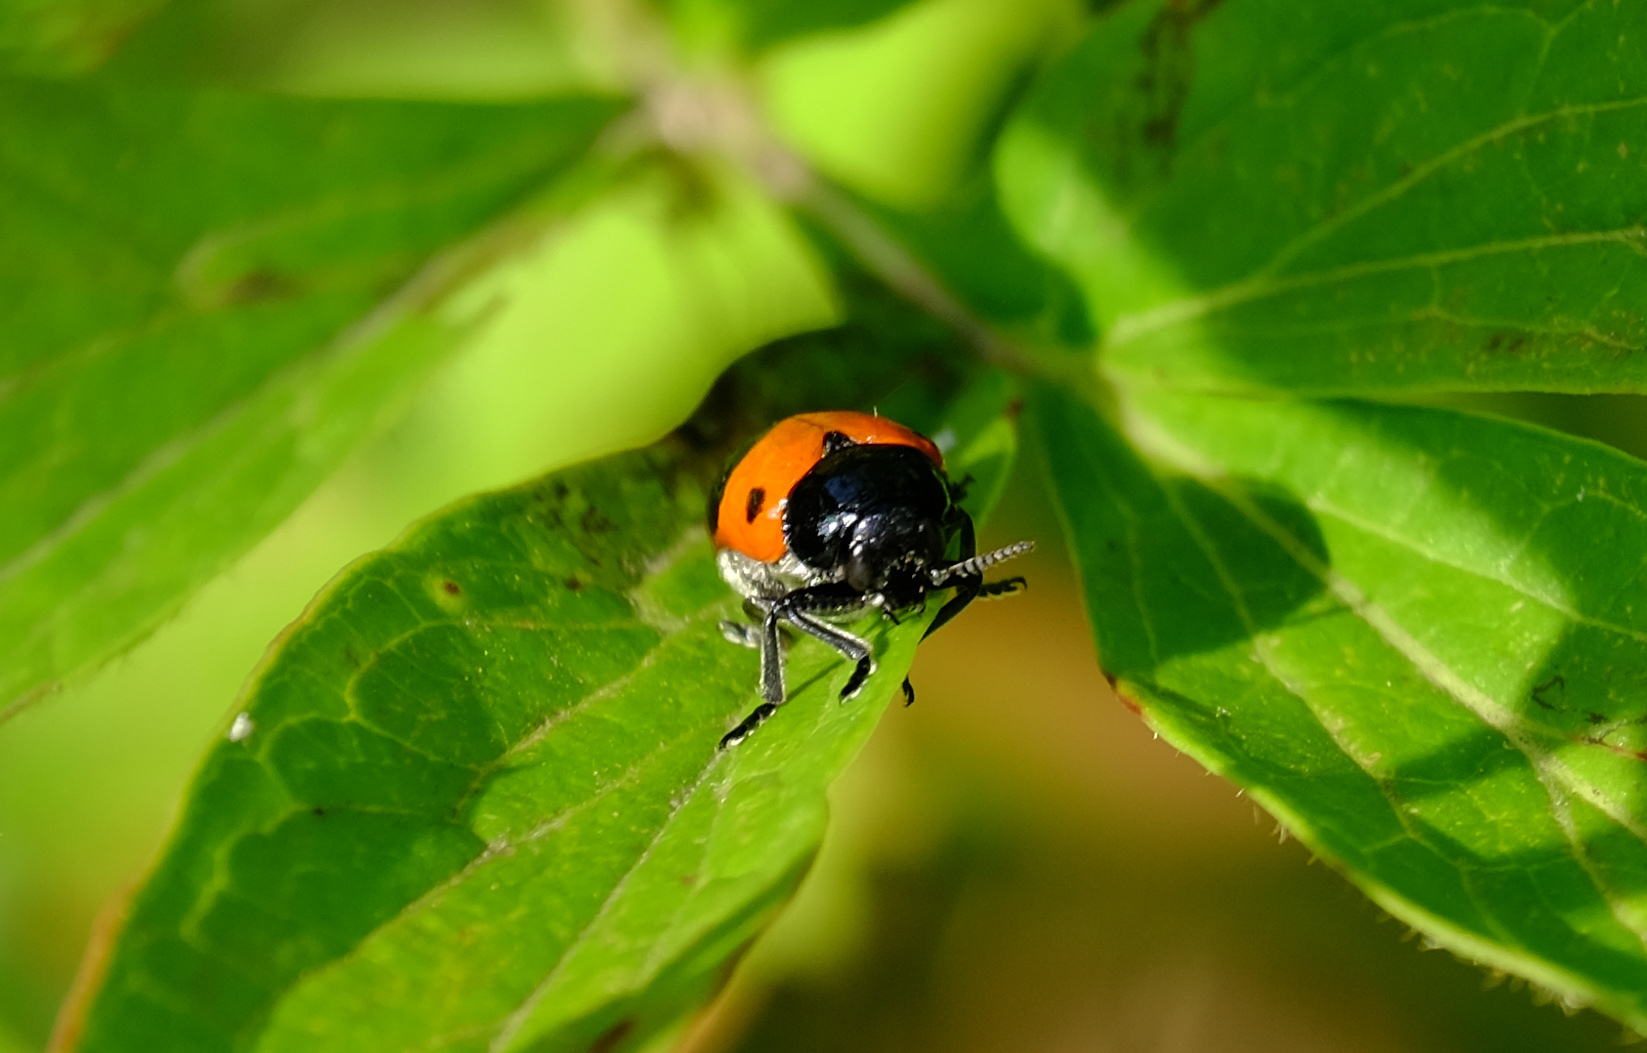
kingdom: Animalia
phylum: Arthropoda
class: Insecta
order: Coleoptera
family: Chrysomelidae
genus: Clytra
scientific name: Clytra laeviuscula
